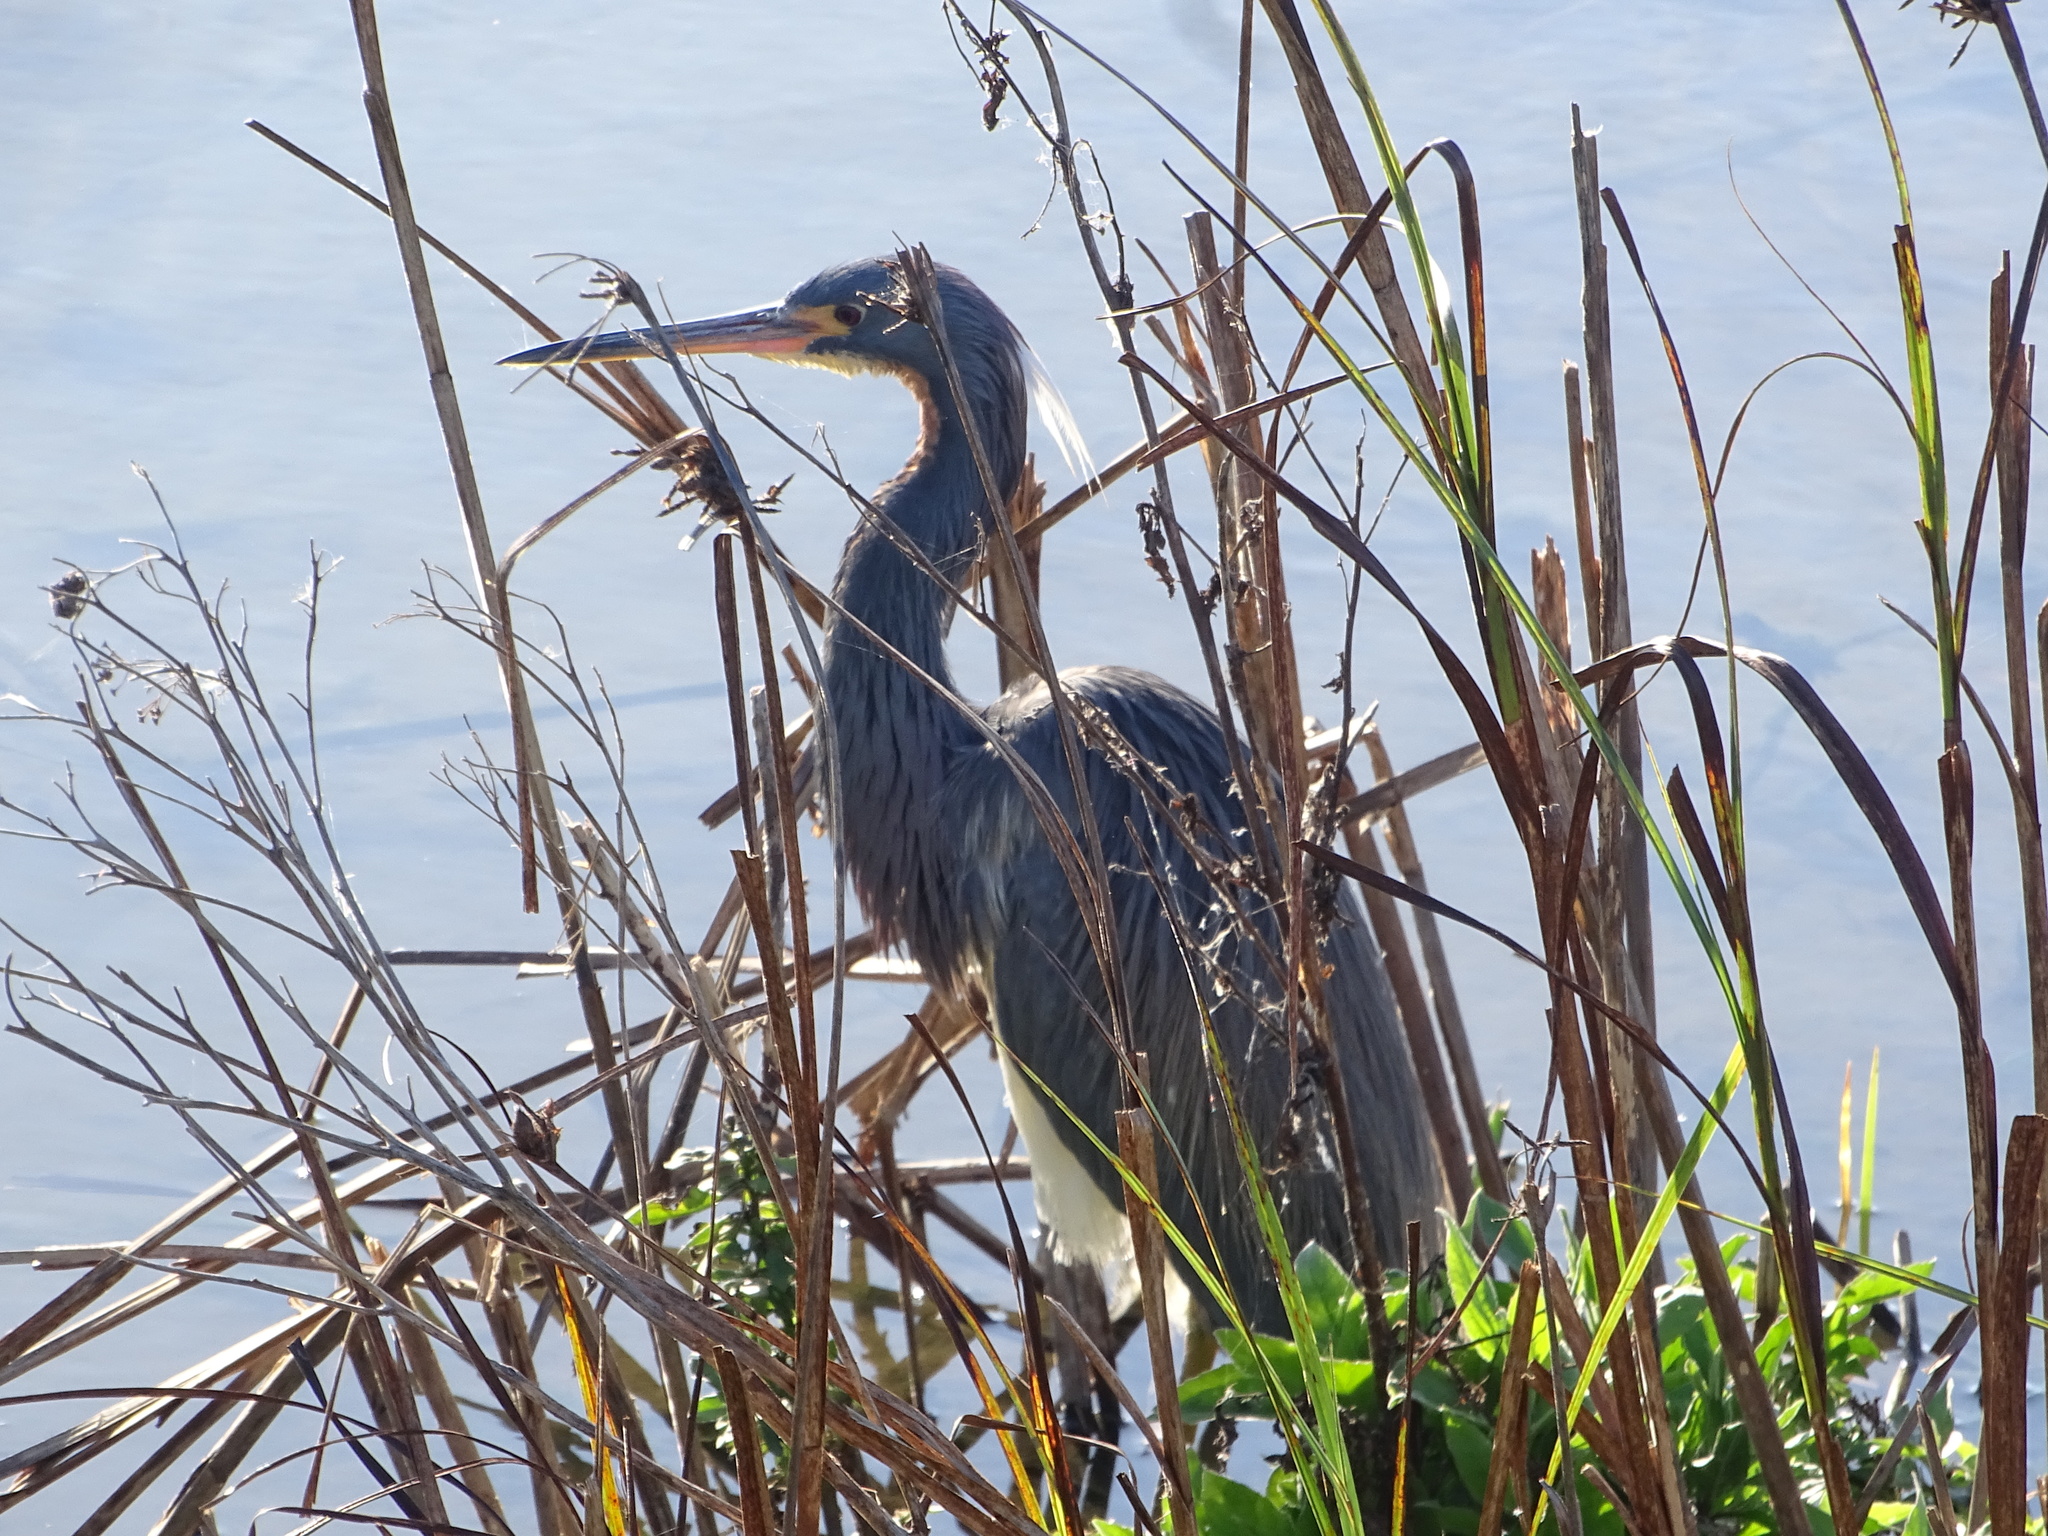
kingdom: Animalia
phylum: Chordata
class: Aves
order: Pelecaniformes
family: Ardeidae
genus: Egretta
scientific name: Egretta tricolor
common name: Tricolored heron
